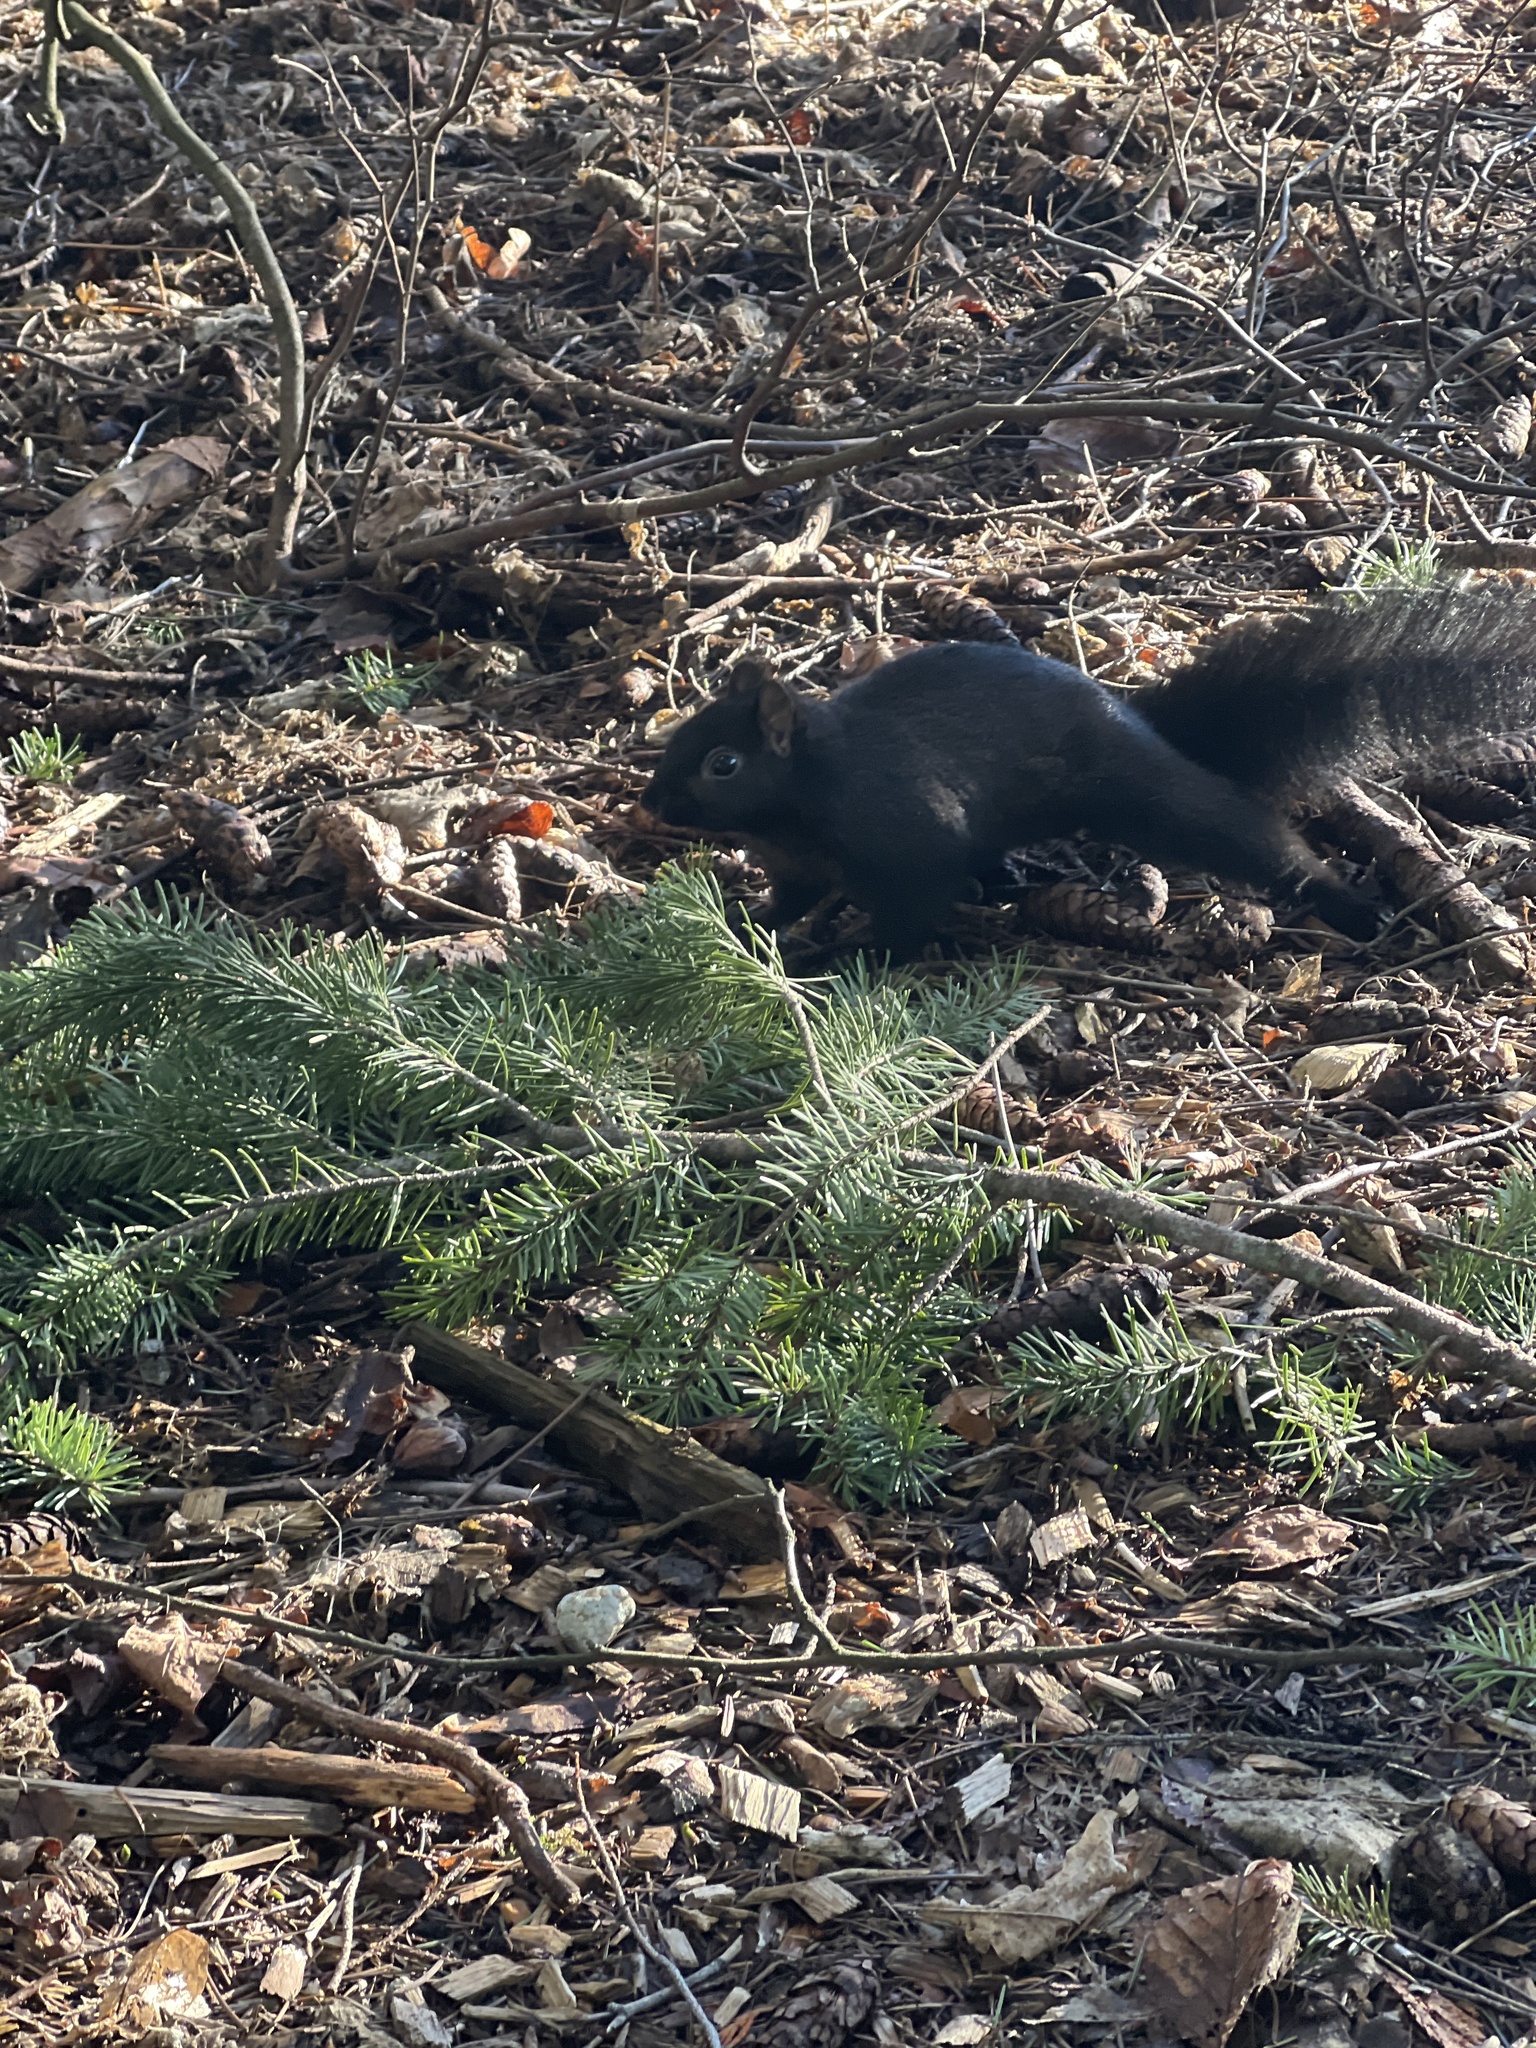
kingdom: Animalia
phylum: Chordata
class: Mammalia
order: Rodentia
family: Sciuridae
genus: Sciurus
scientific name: Sciurus carolinensis
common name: Eastern gray squirrel
